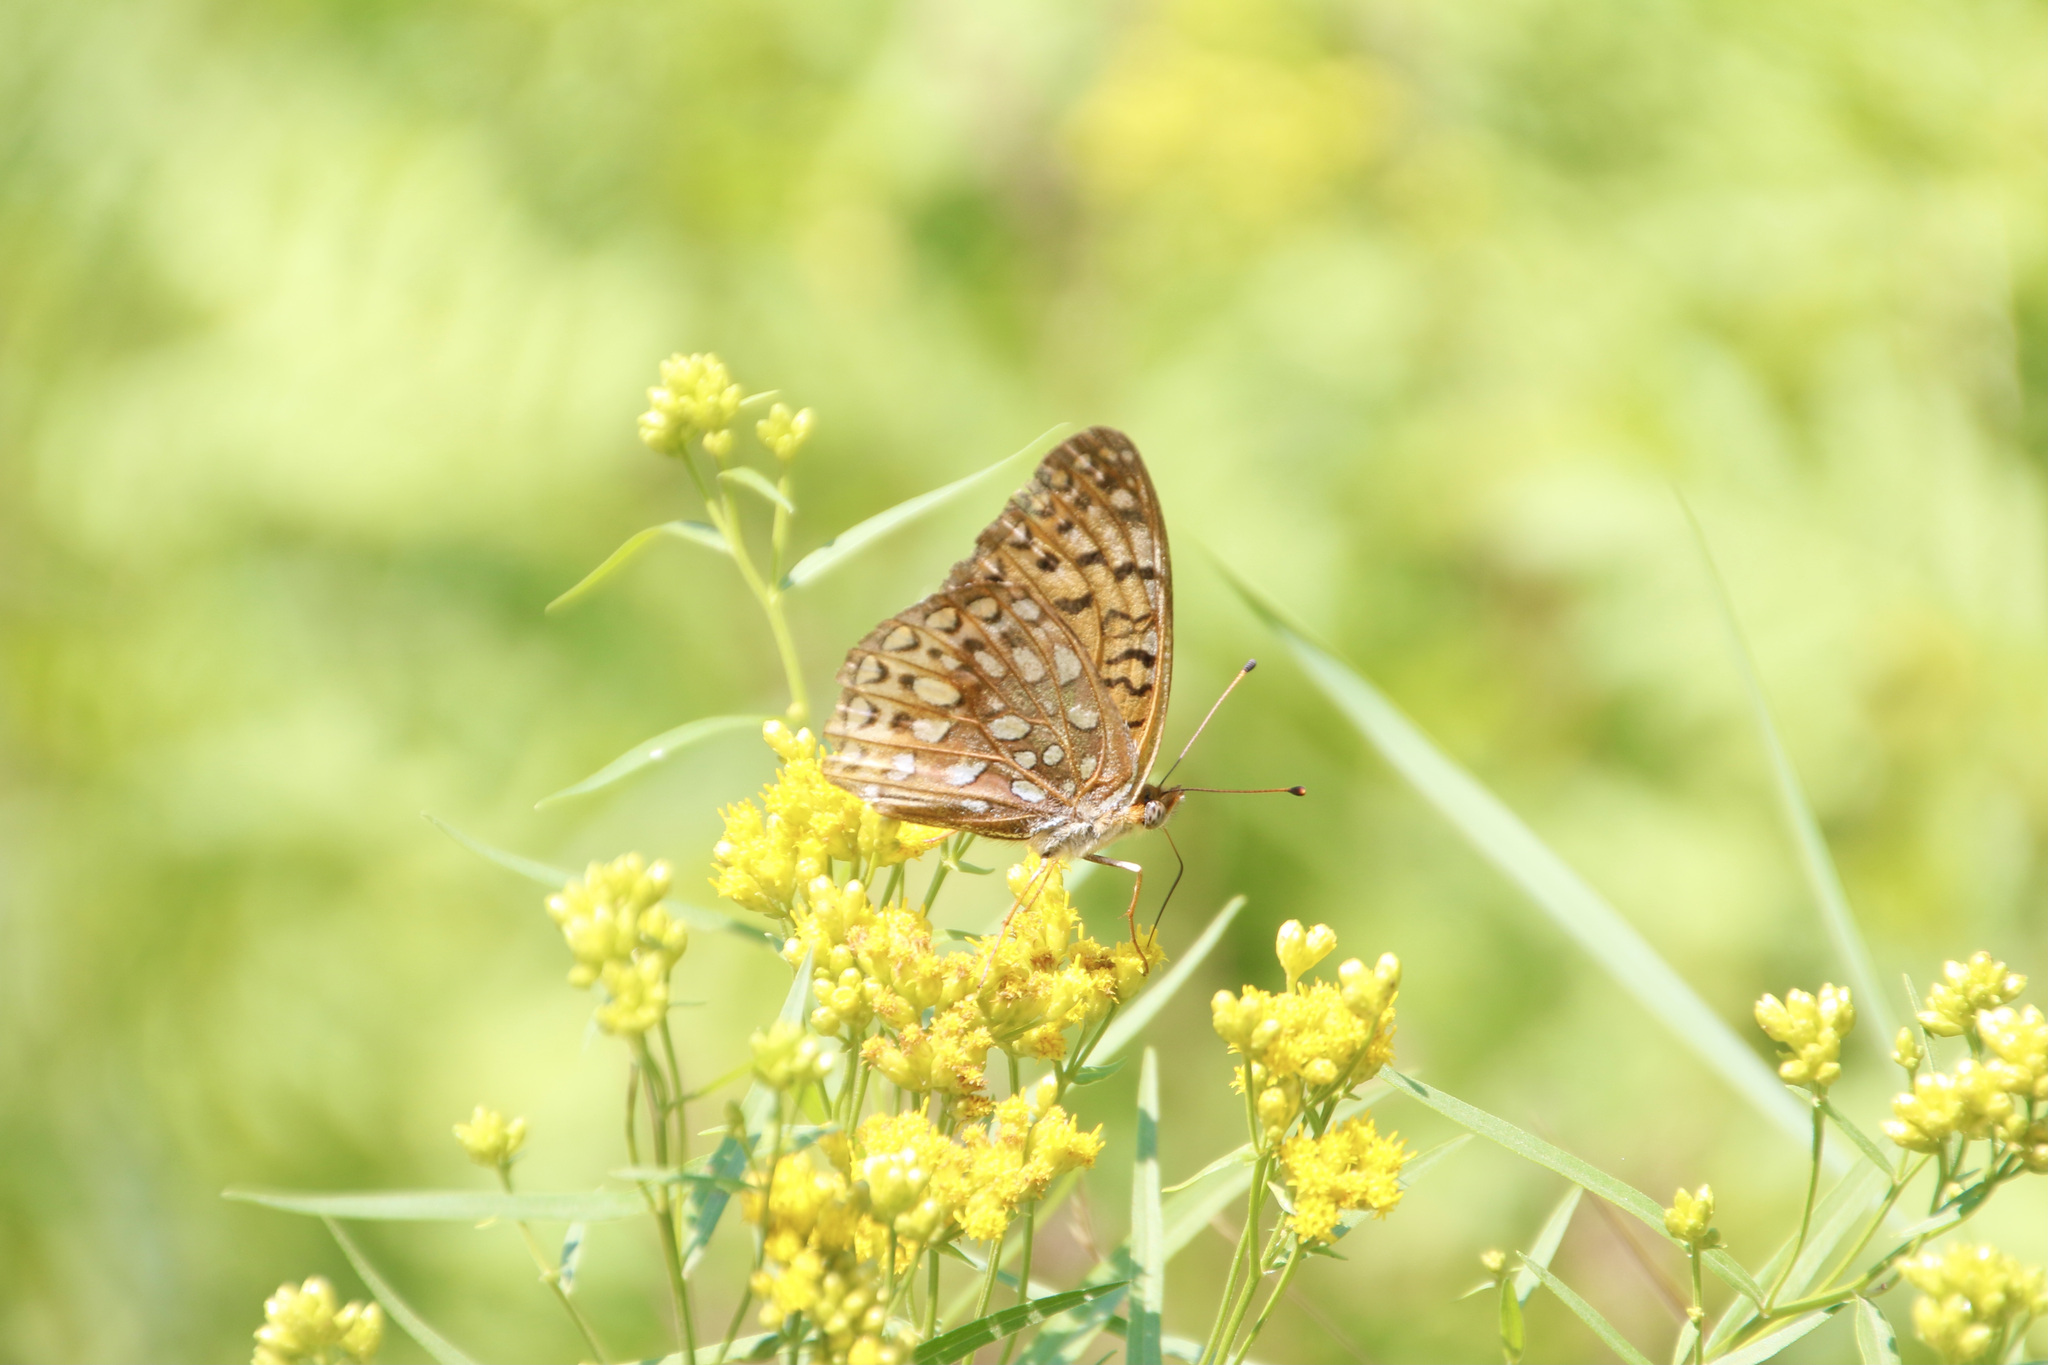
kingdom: Animalia
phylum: Arthropoda
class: Insecta
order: Lepidoptera
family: Nymphalidae
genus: Speyeria
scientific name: Speyeria atlantis
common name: Atlantis fritillary
